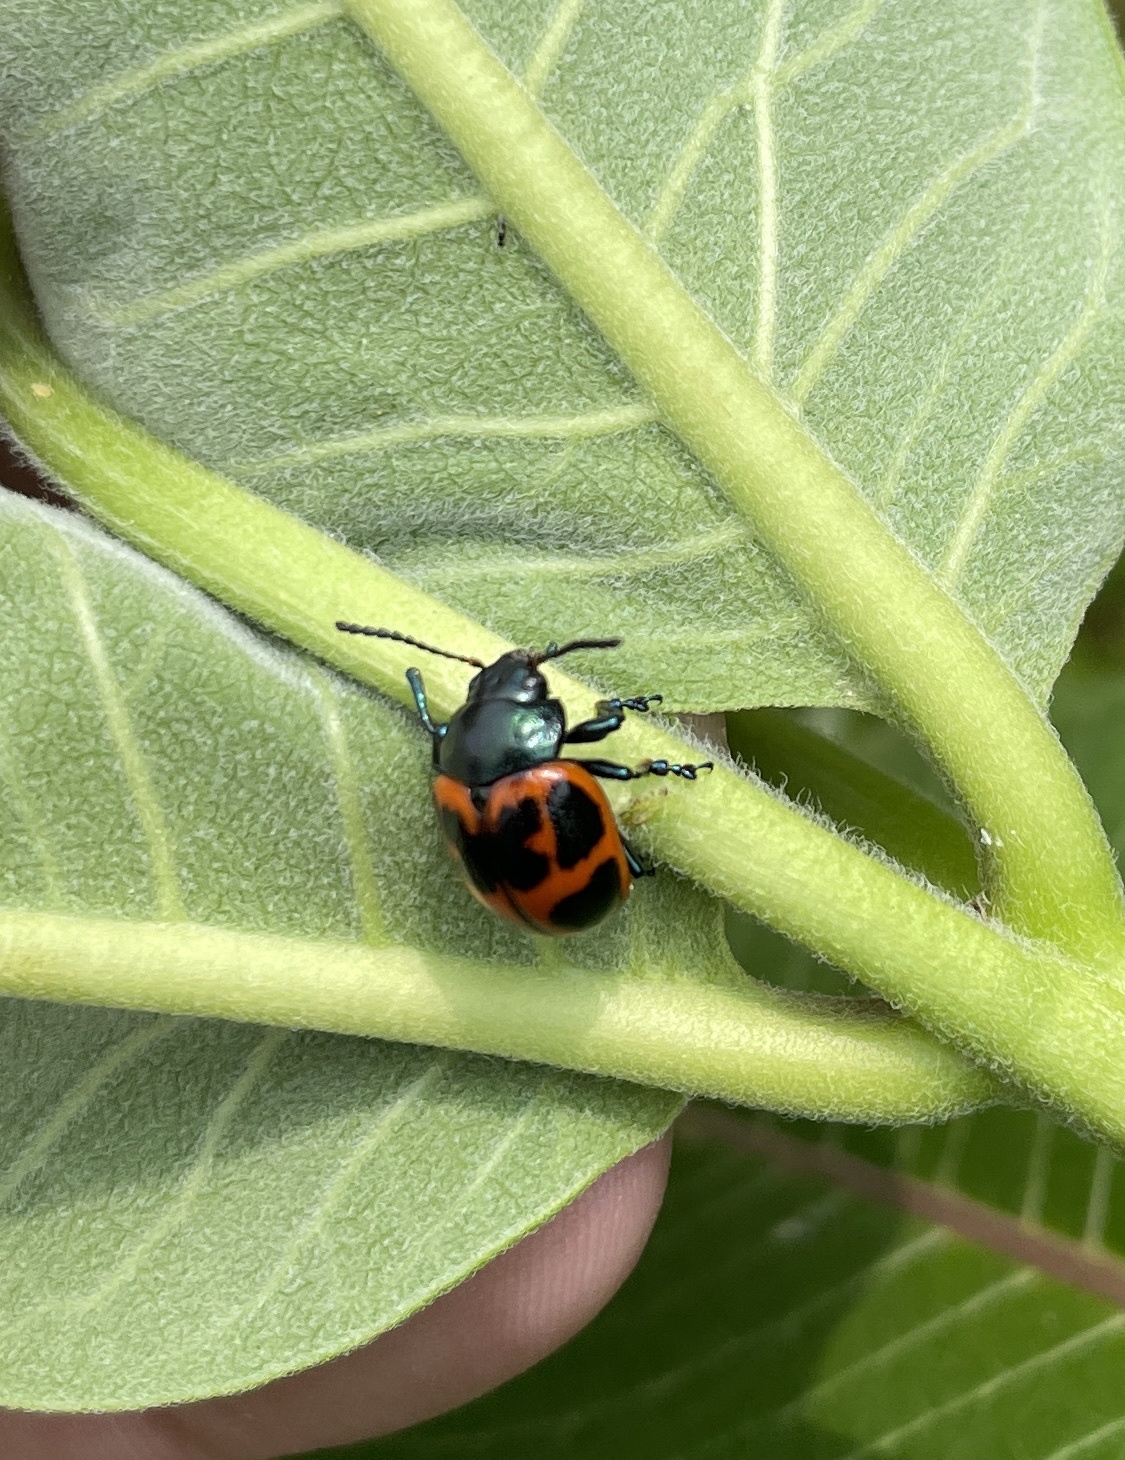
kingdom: Animalia
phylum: Arthropoda
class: Insecta
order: Coleoptera
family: Chrysomelidae
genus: Labidomera
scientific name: Labidomera clivicollis
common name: Swamp milkweed leaf beetle
